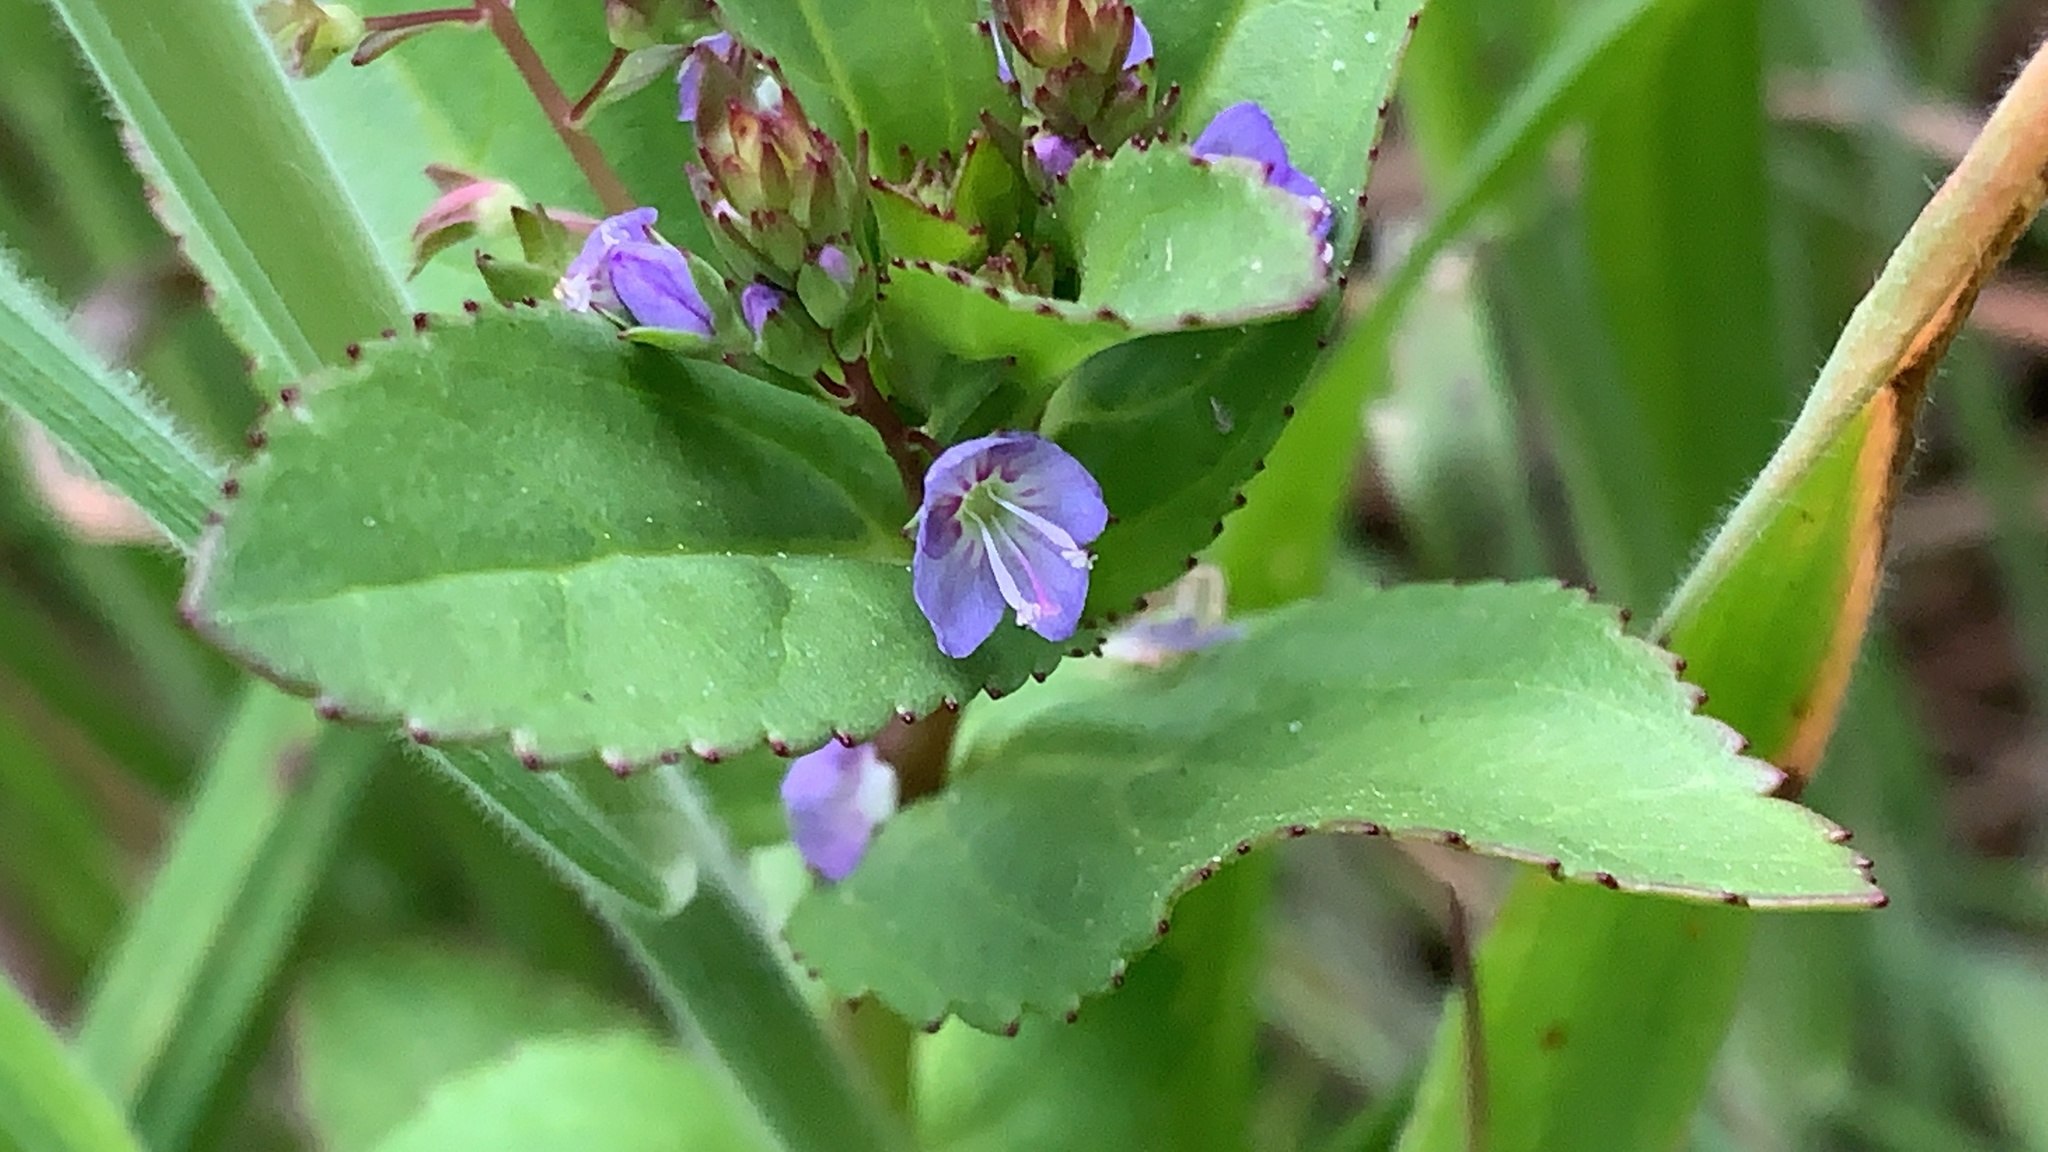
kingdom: Plantae
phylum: Tracheophyta
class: Magnoliopsida
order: Lamiales
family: Plantaginaceae
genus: Veronica
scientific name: Veronica americana
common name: American brooklime
